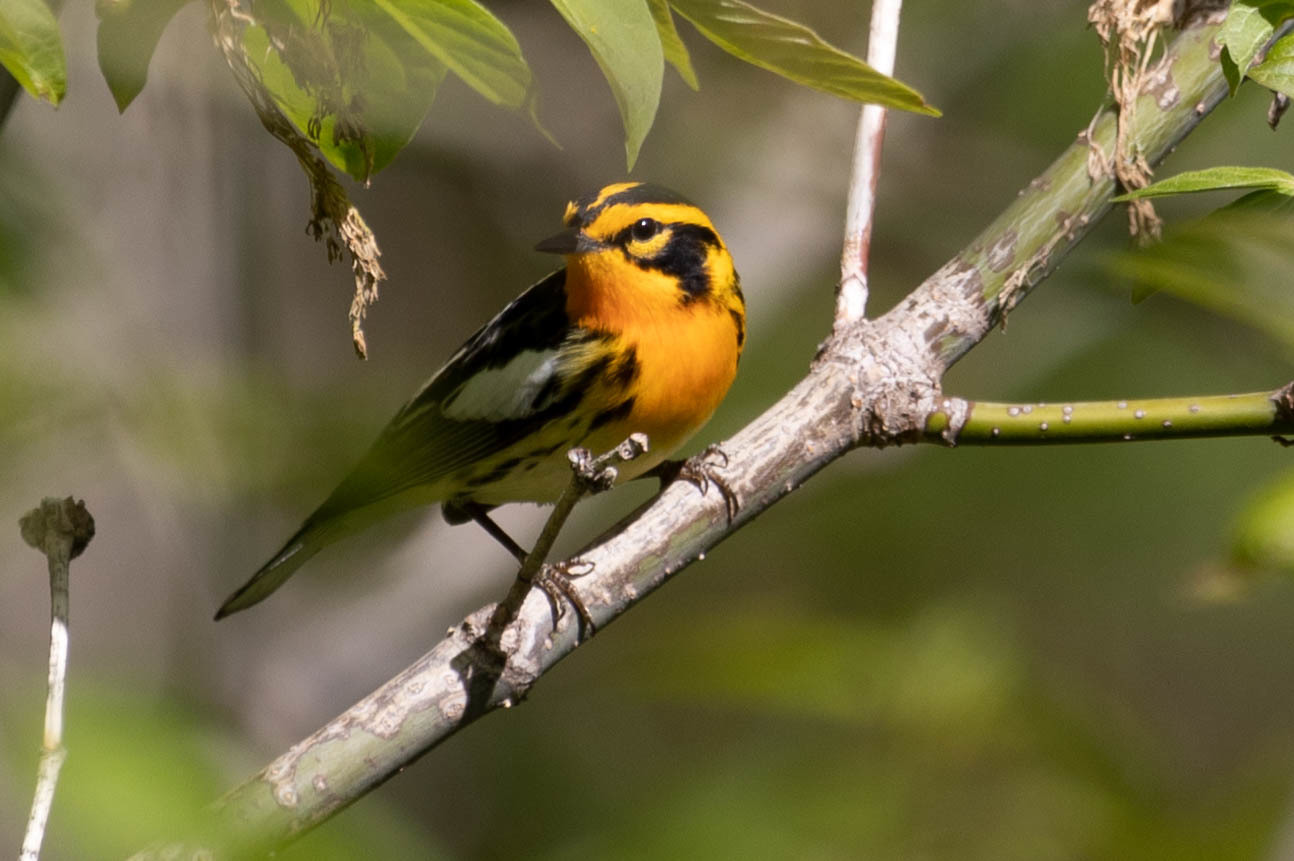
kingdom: Animalia
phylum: Chordata
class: Aves
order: Passeriformes
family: Parulidae
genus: Setophaga
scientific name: Setophaga fusca
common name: Blackburnian warbler
